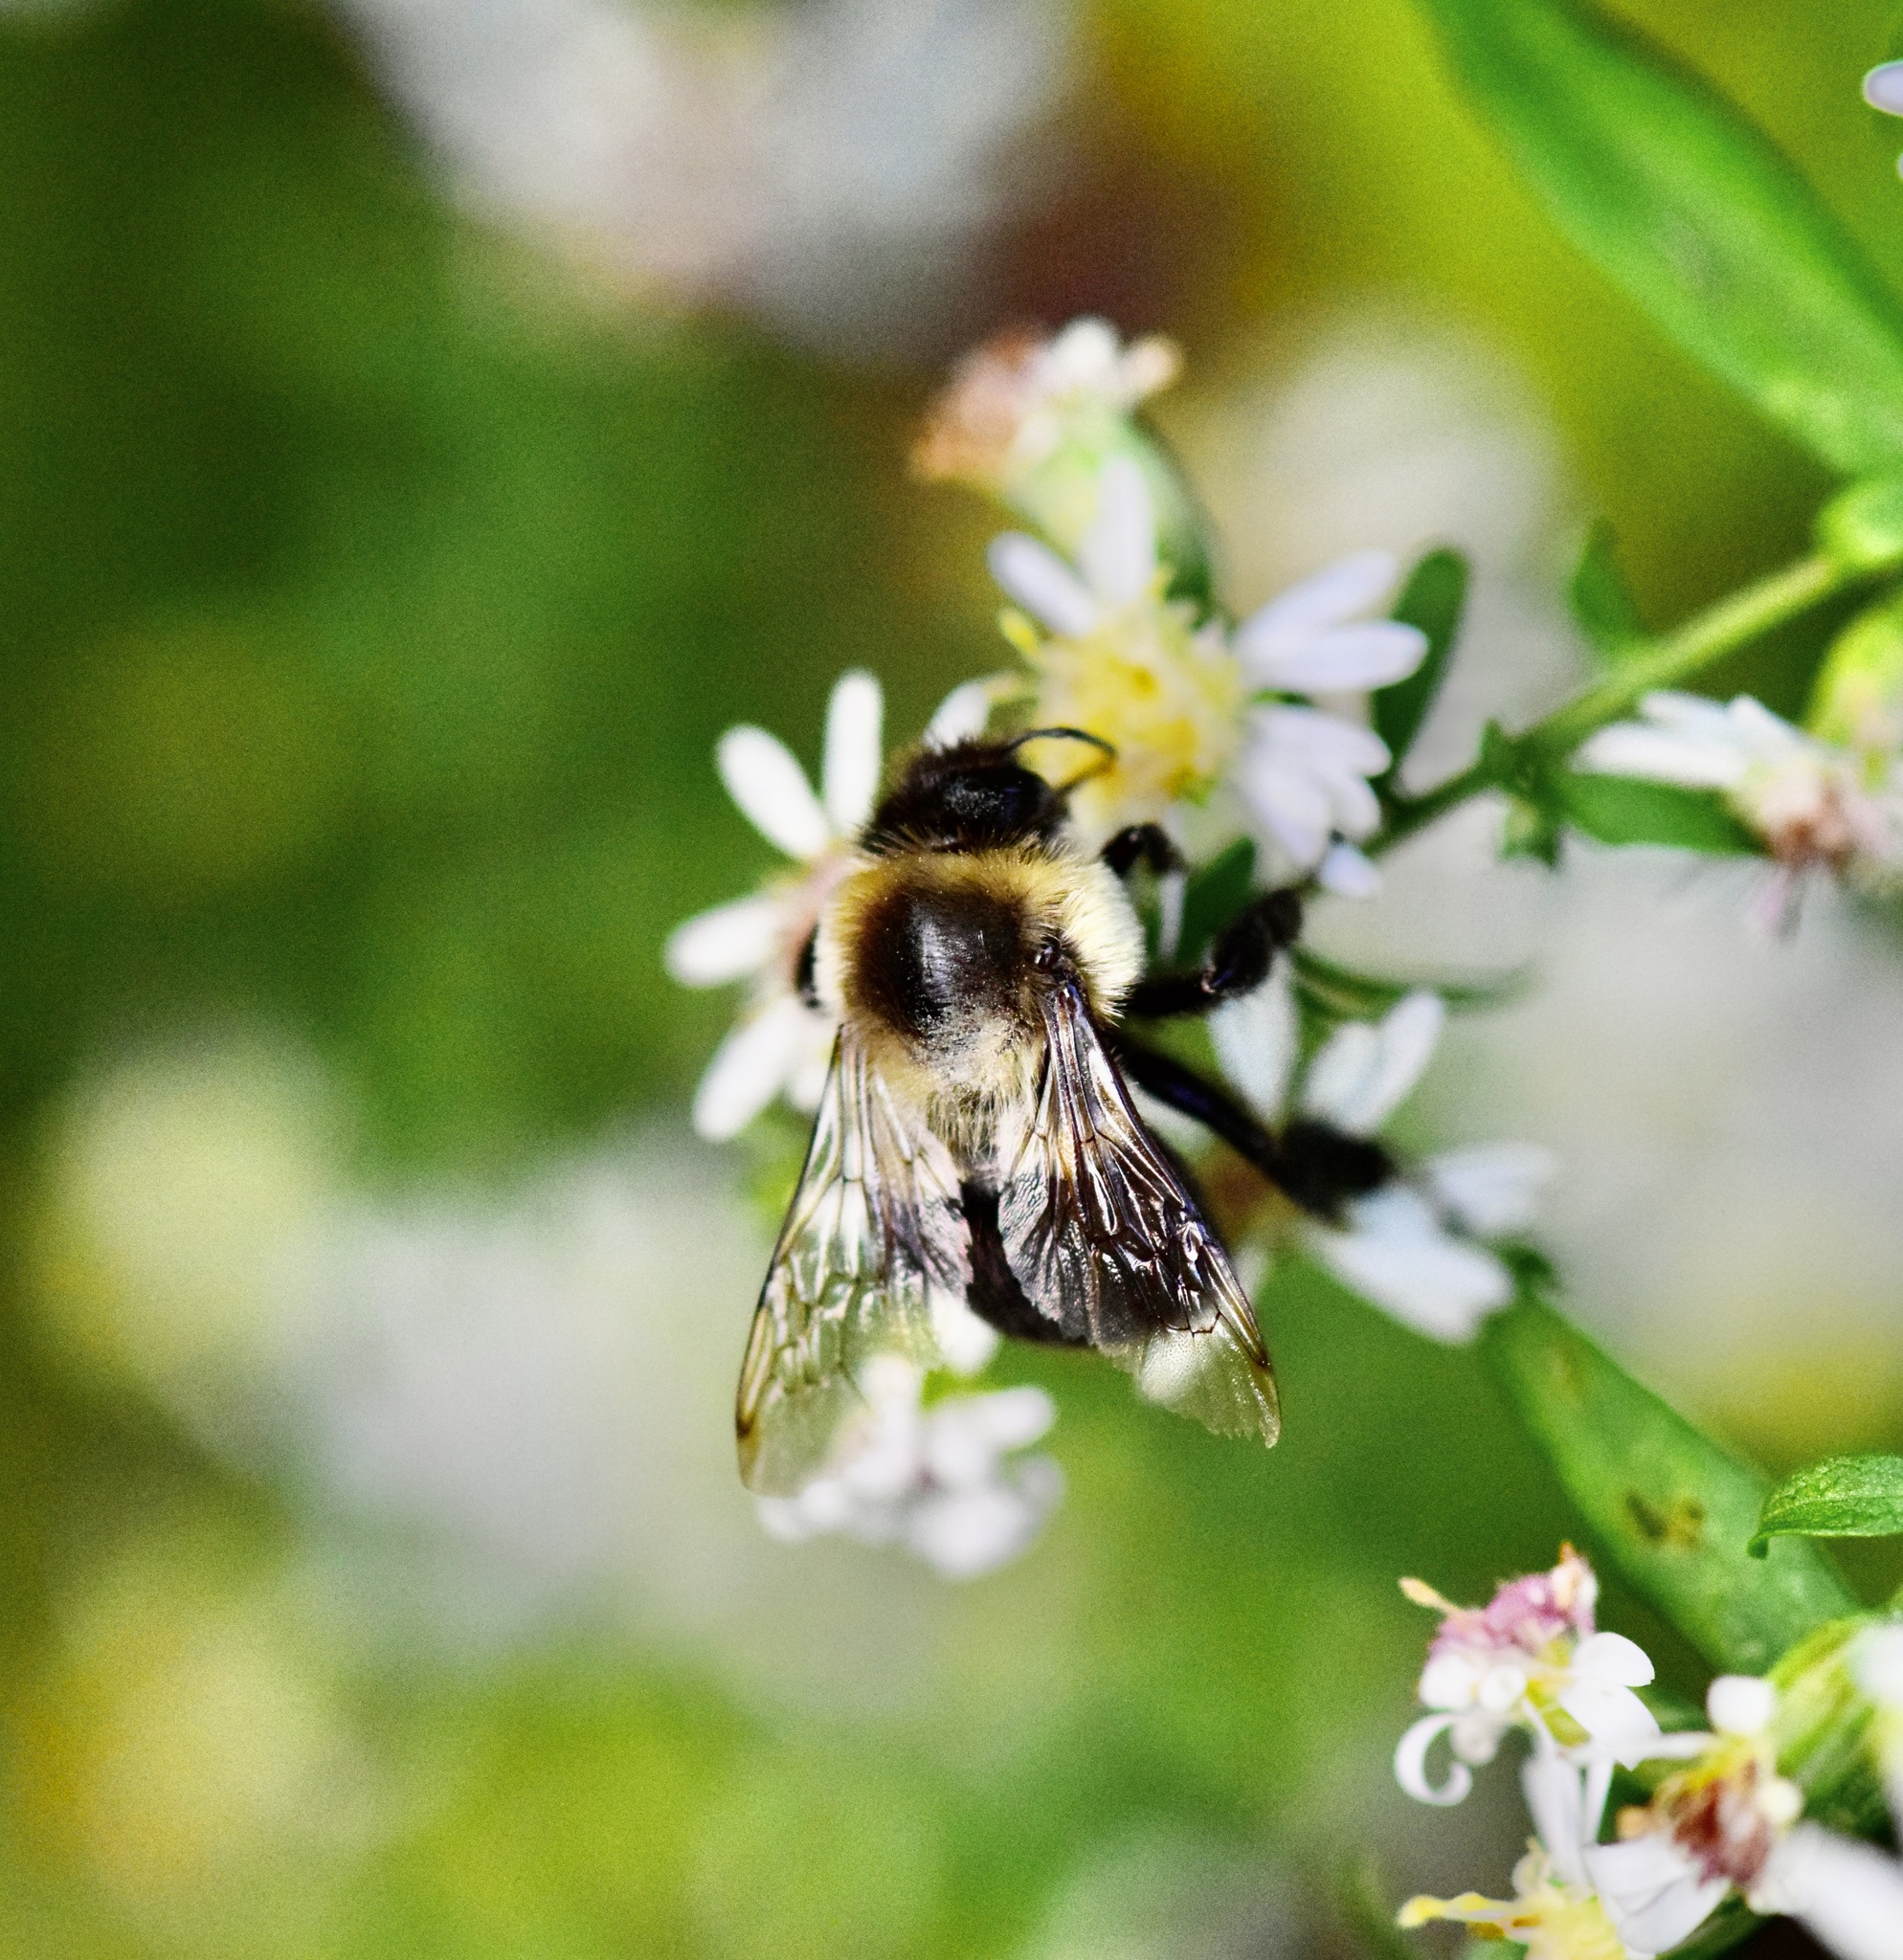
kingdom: Animalia
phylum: Arthropoda
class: Insecta
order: Hymenoptera
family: Apidae
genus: Bombus
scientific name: Bombus impatiens
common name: Common eastern bumble bee
